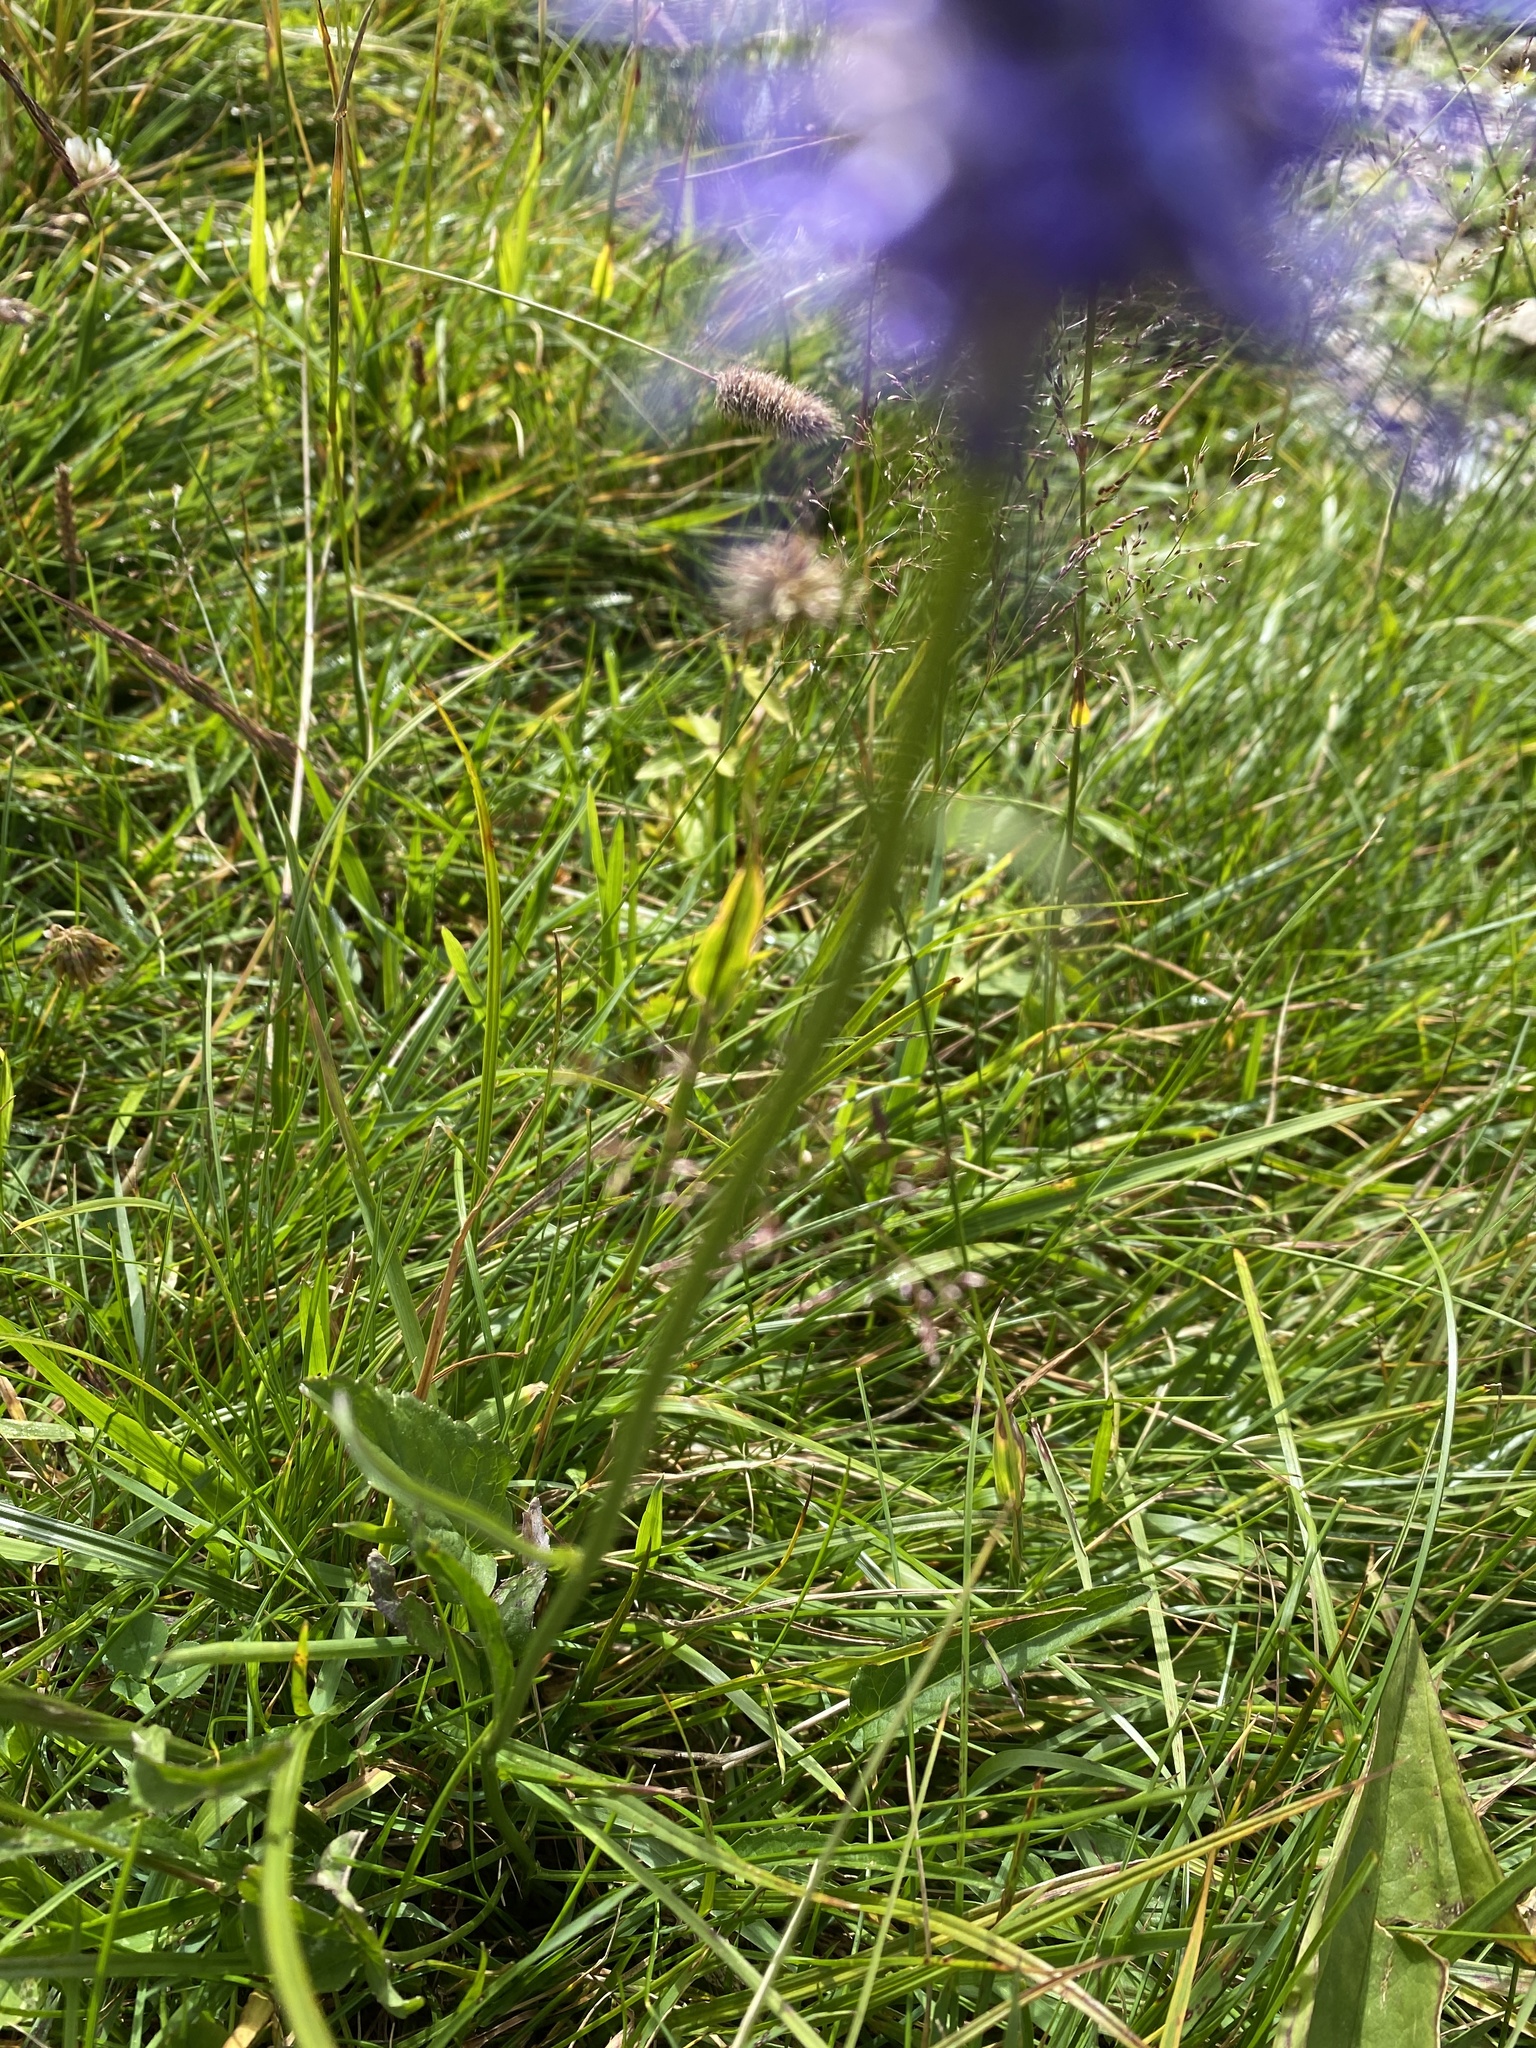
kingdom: Plantae
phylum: Tracheophyta
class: Magnoliopsida
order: Asterales
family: Campanulaceae
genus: Phyteuma
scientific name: Phyteuma betonicifolium
